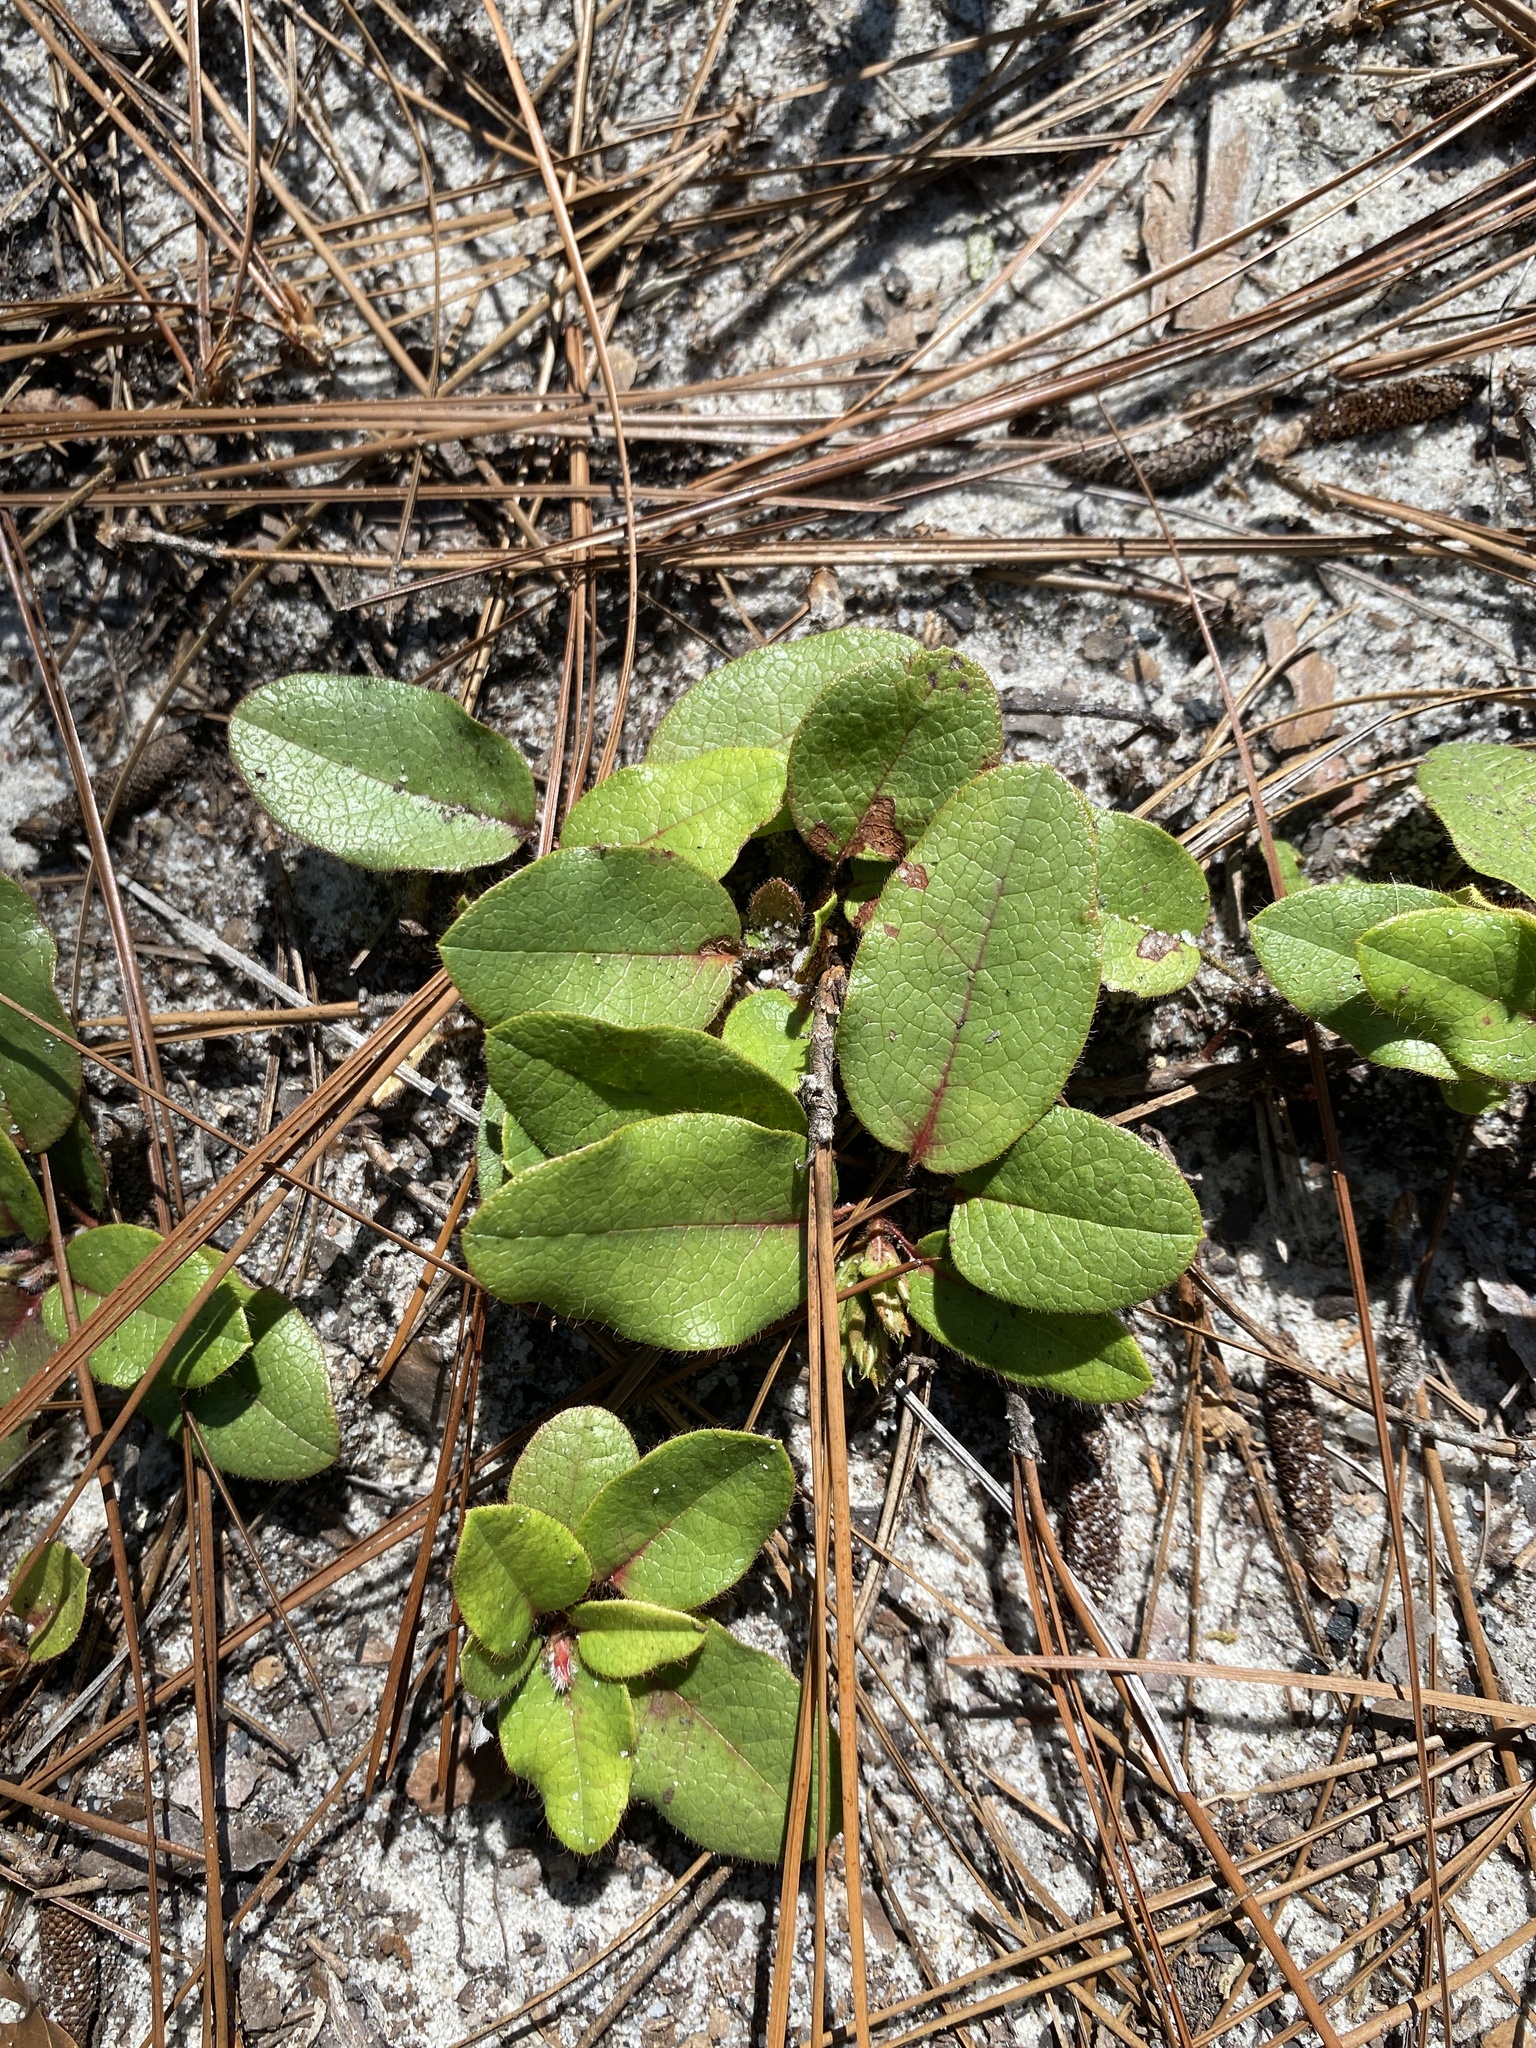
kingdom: Plantae
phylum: Tracheophyta
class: Magnoliopsida
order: Ericales
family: Ericaceae
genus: Epigaea
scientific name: Epigaea repens
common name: Gravelroot
